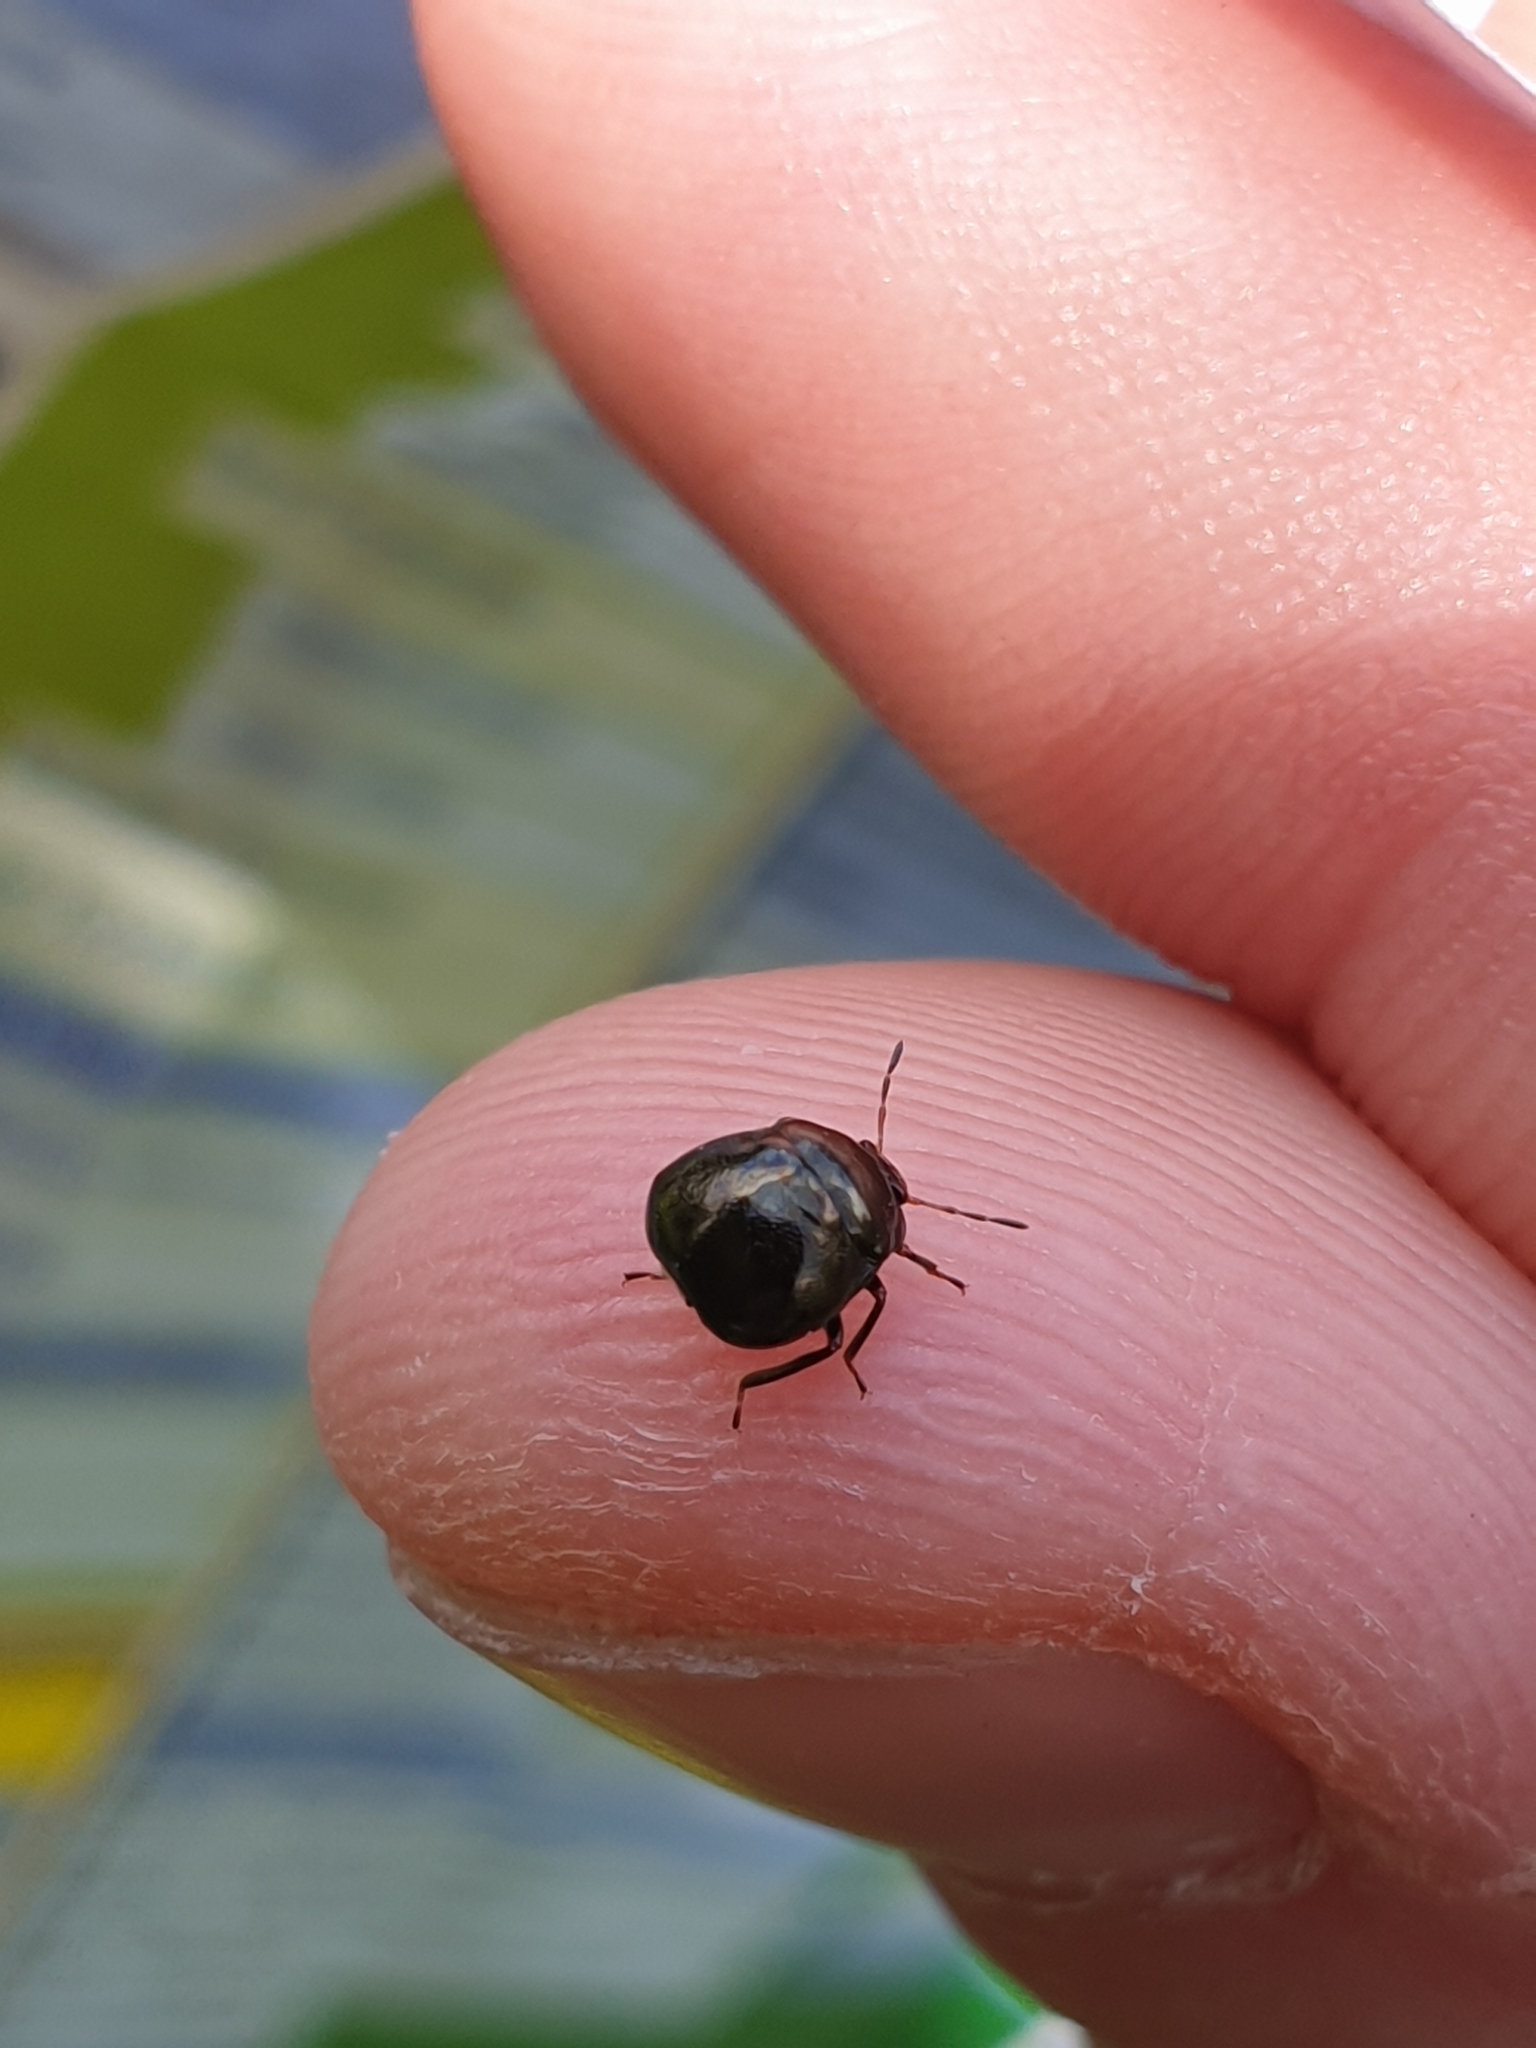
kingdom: Animalia
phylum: Arthropoda
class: Insecta
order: Hemiptera
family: Plataspidae
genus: Coptosoma
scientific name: Coptosoma scutellatum
